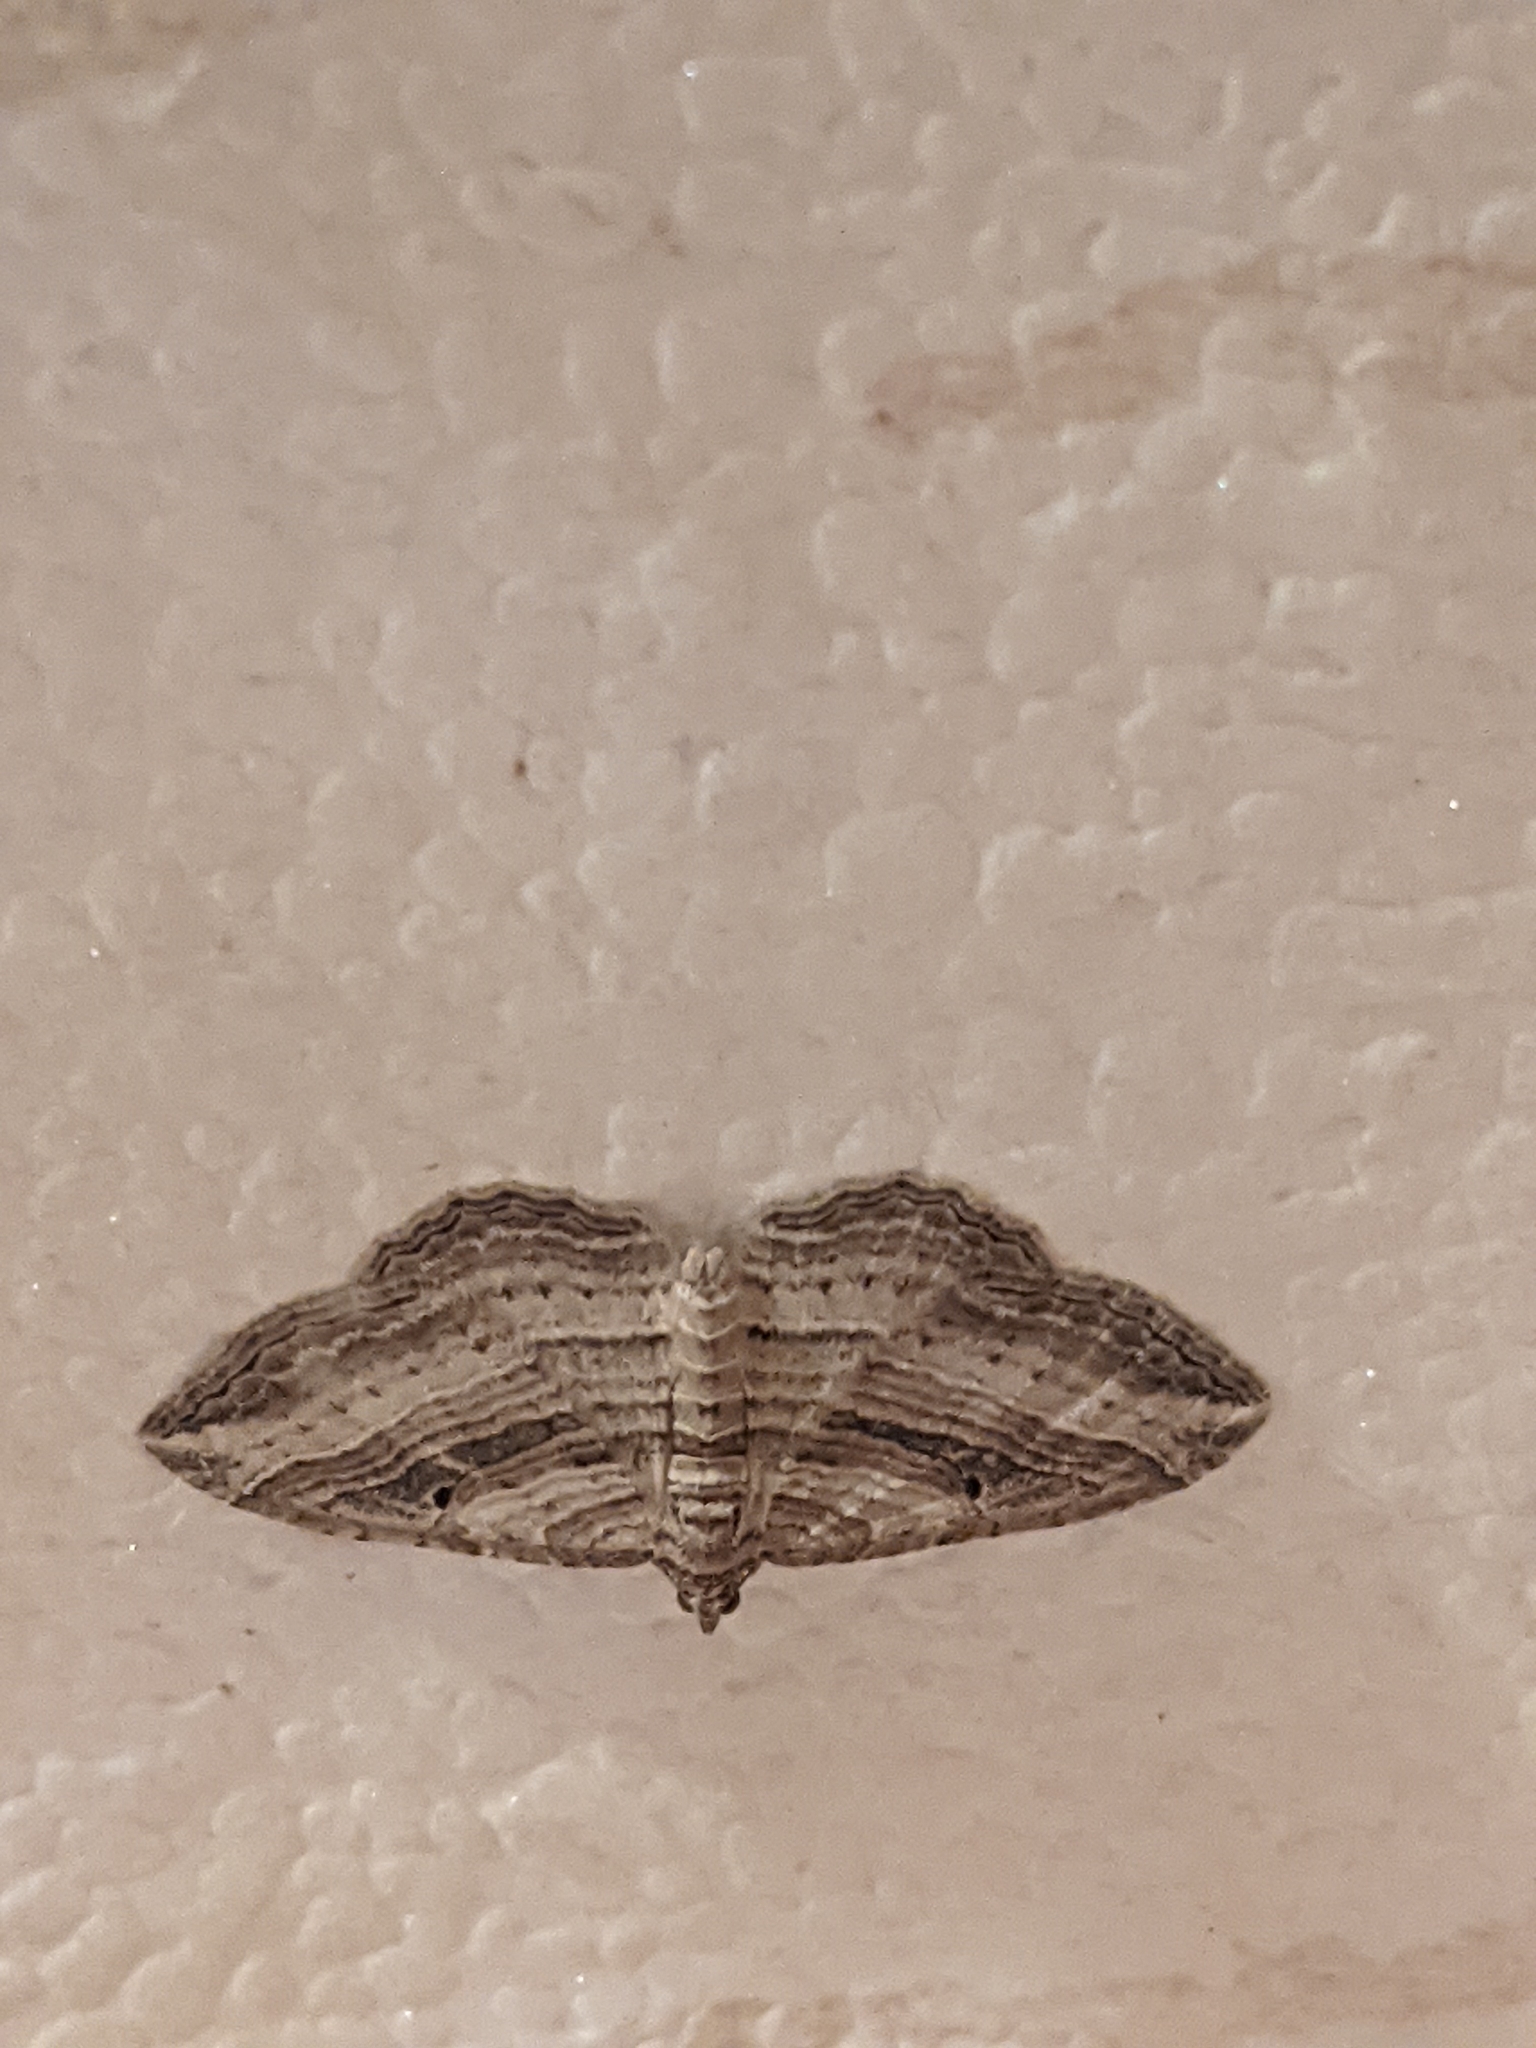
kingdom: Animalia
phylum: Arthropoda
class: Insecta
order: Lepidoptera
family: Geometridae
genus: Costaconvexa
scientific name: Costaconvexa polygrammata
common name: Many-lined
